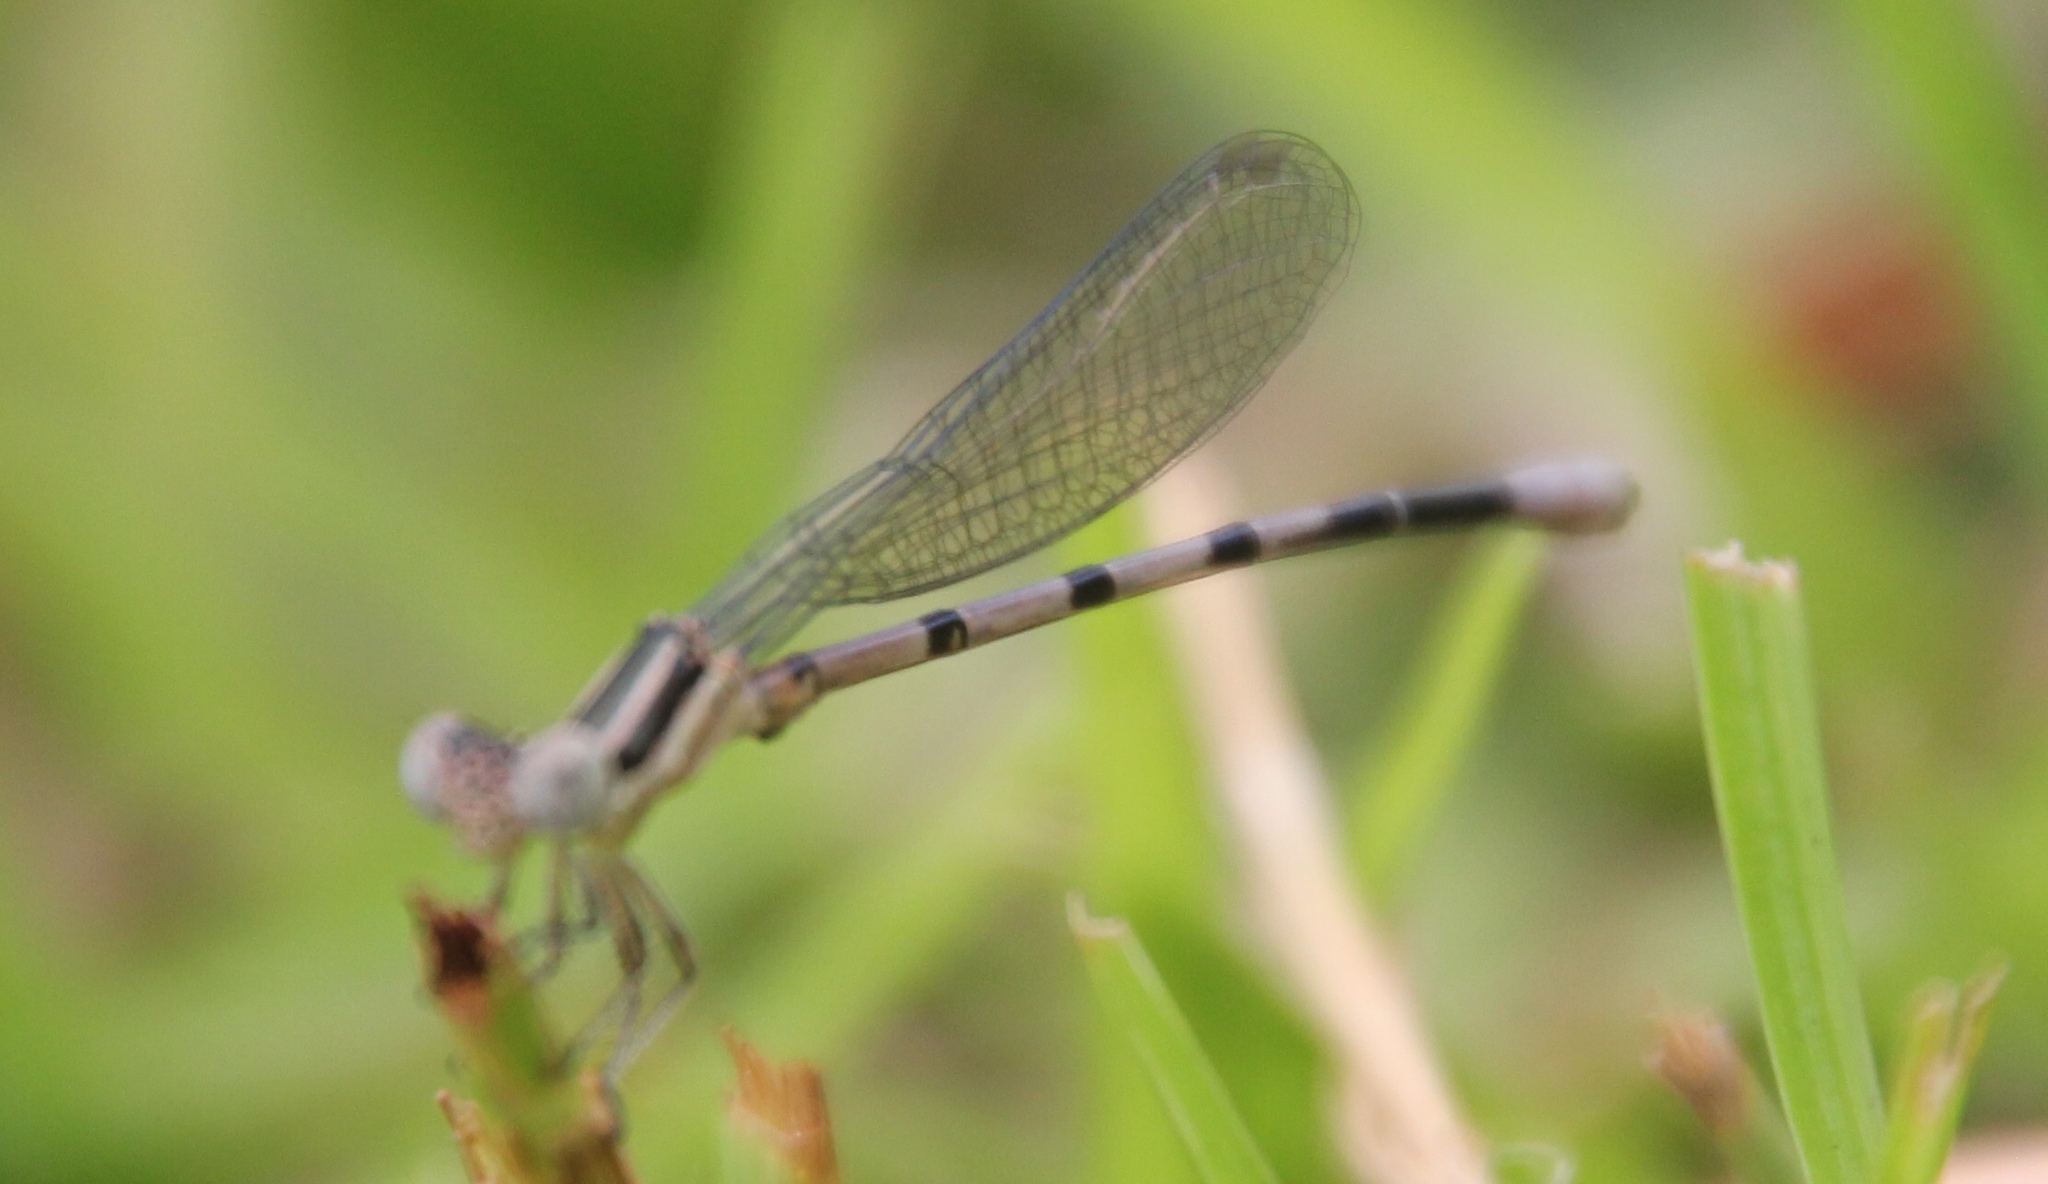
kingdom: Animalia
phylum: Arthropoda
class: Insecta
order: Odonata
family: Coenagrionidae
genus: Argia
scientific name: Argia bipunctulata
